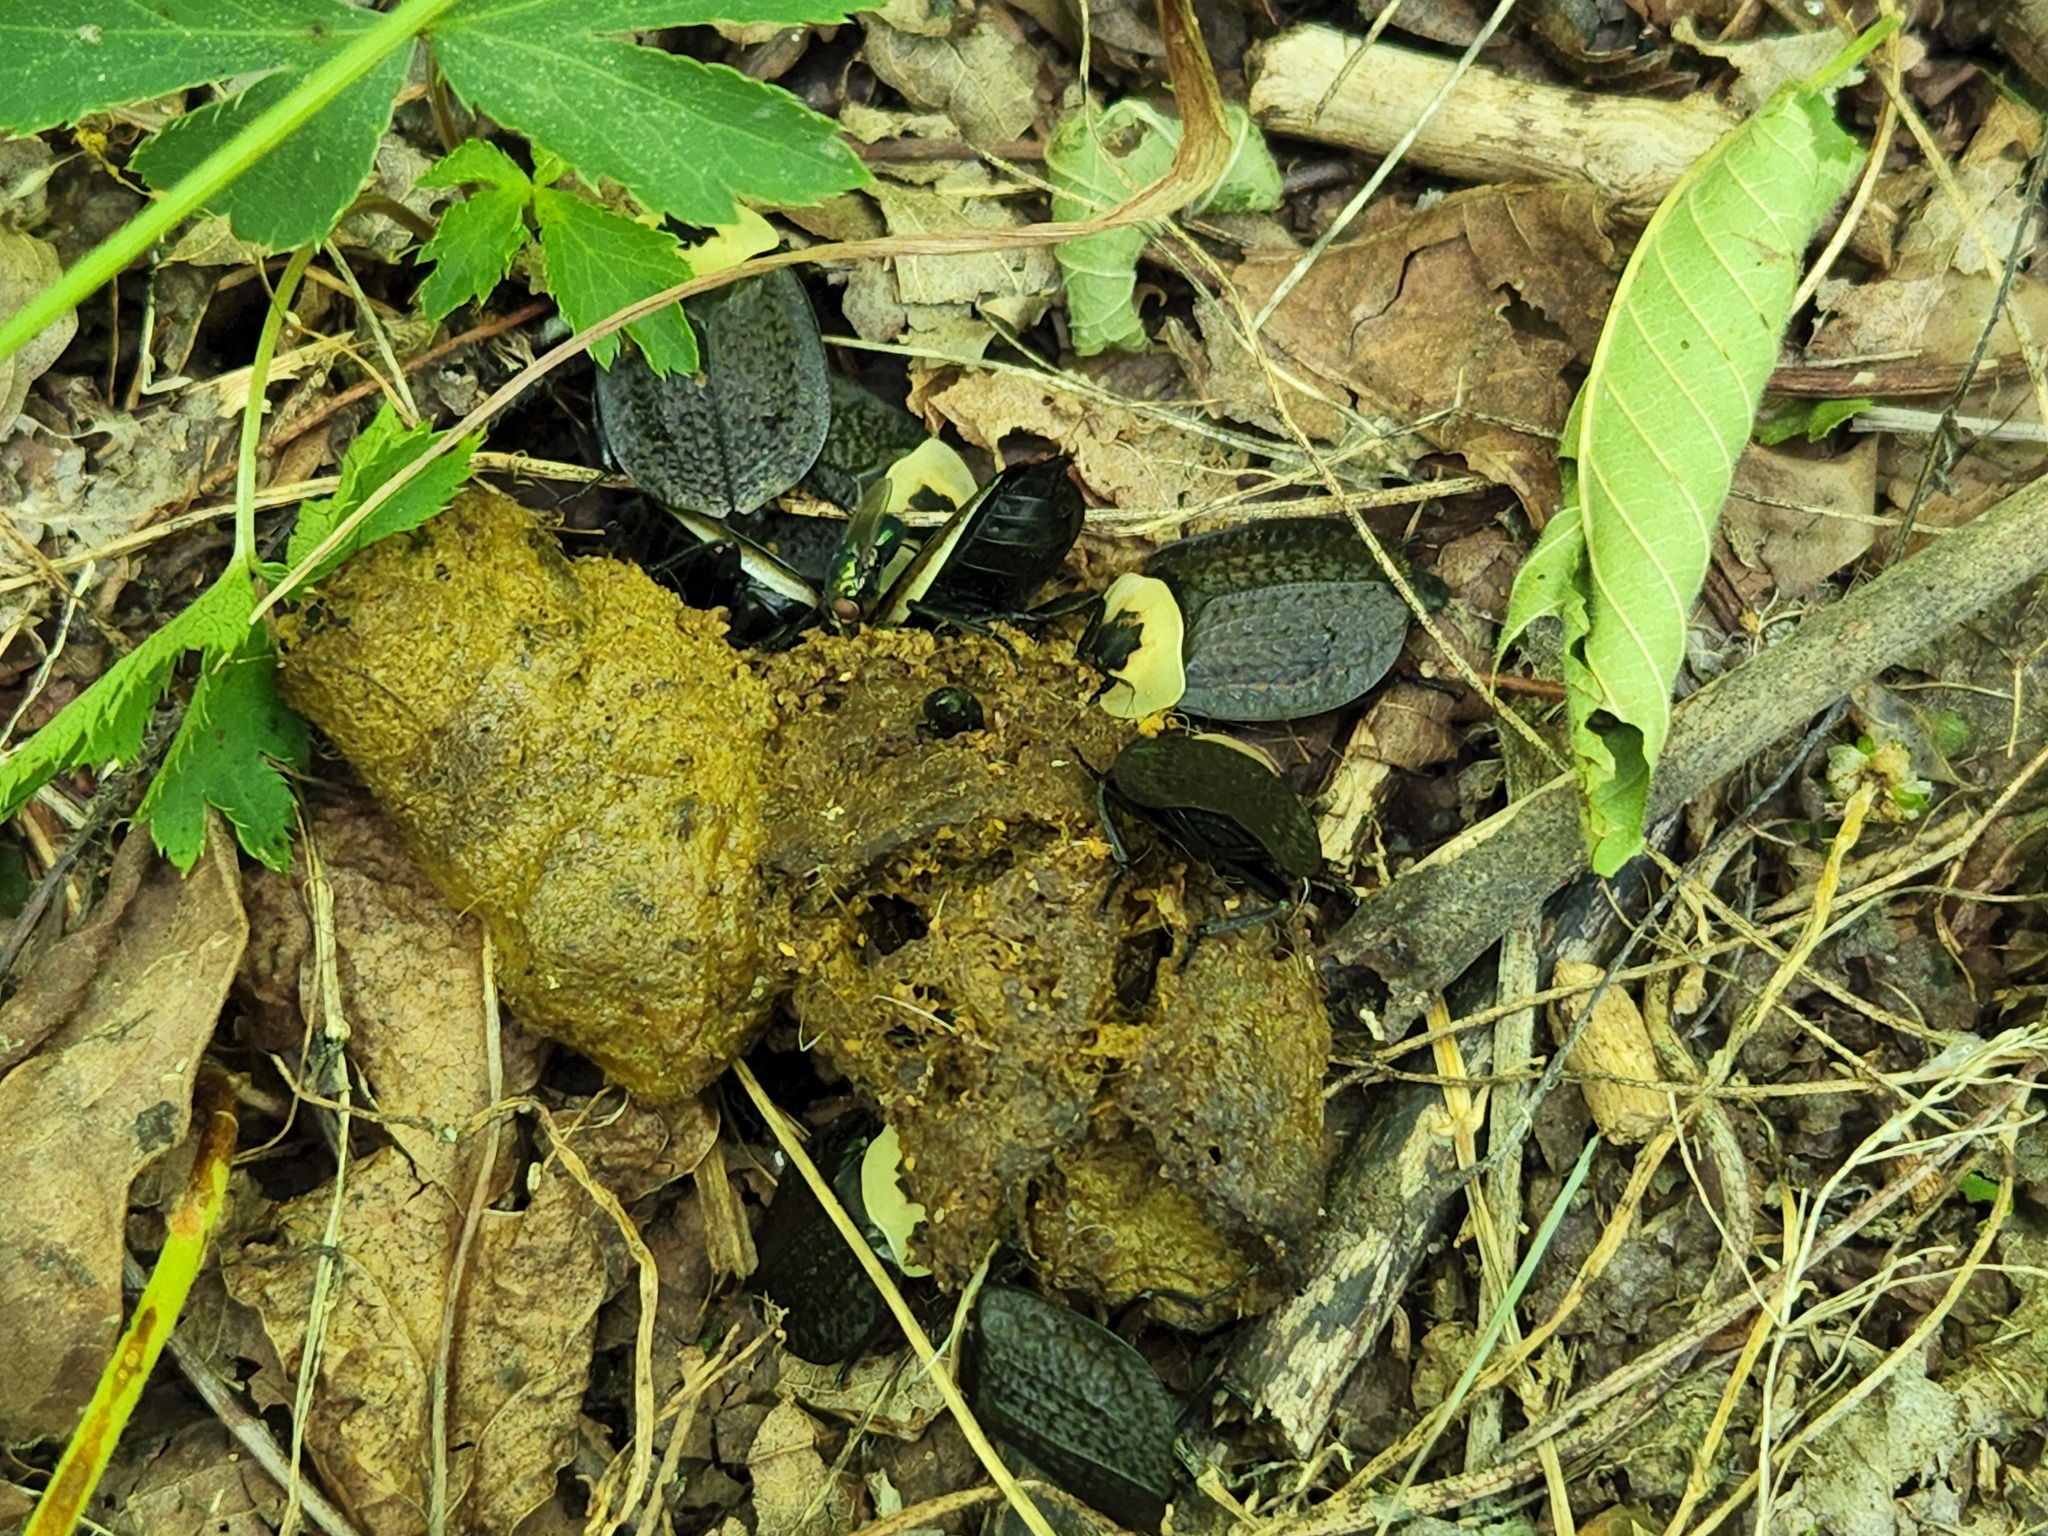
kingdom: Animalia
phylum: Arthropoda
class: Insecta
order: Coleoptera
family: Staphylinidae
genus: Necrophila
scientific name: Necrophila americana
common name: American carrion beetle
